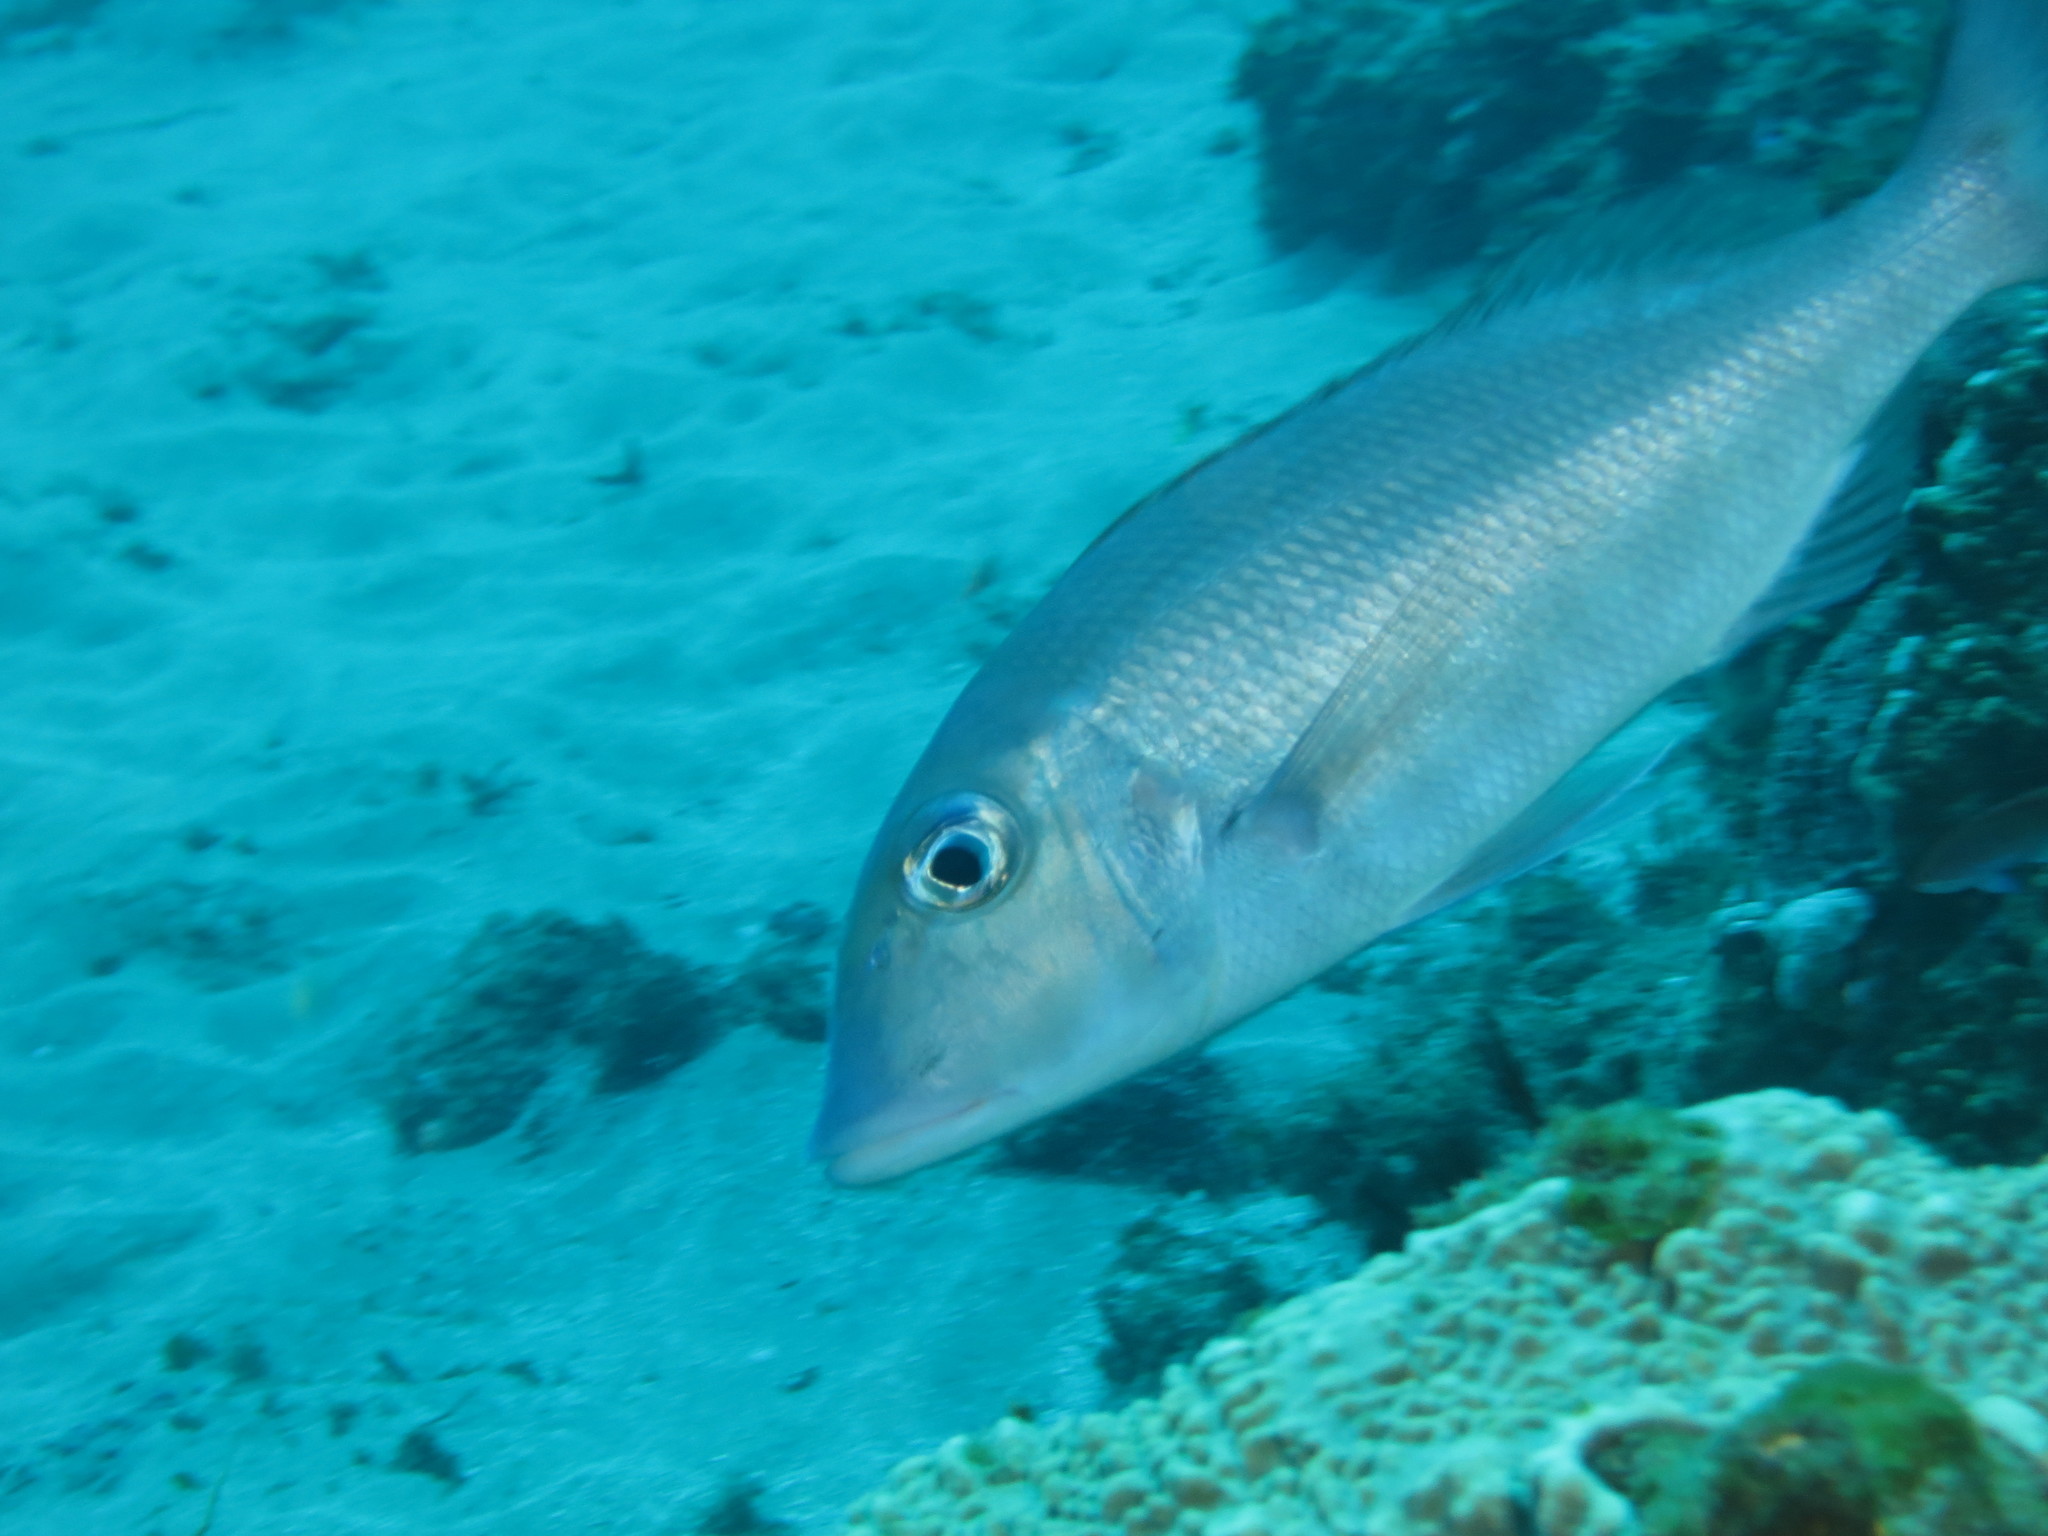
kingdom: Animalia
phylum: Chordata
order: Perciformes
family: Lethrinidae
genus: Lethrinus
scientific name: Lethrinus rubrioperculatus
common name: Spotcheek emperor
